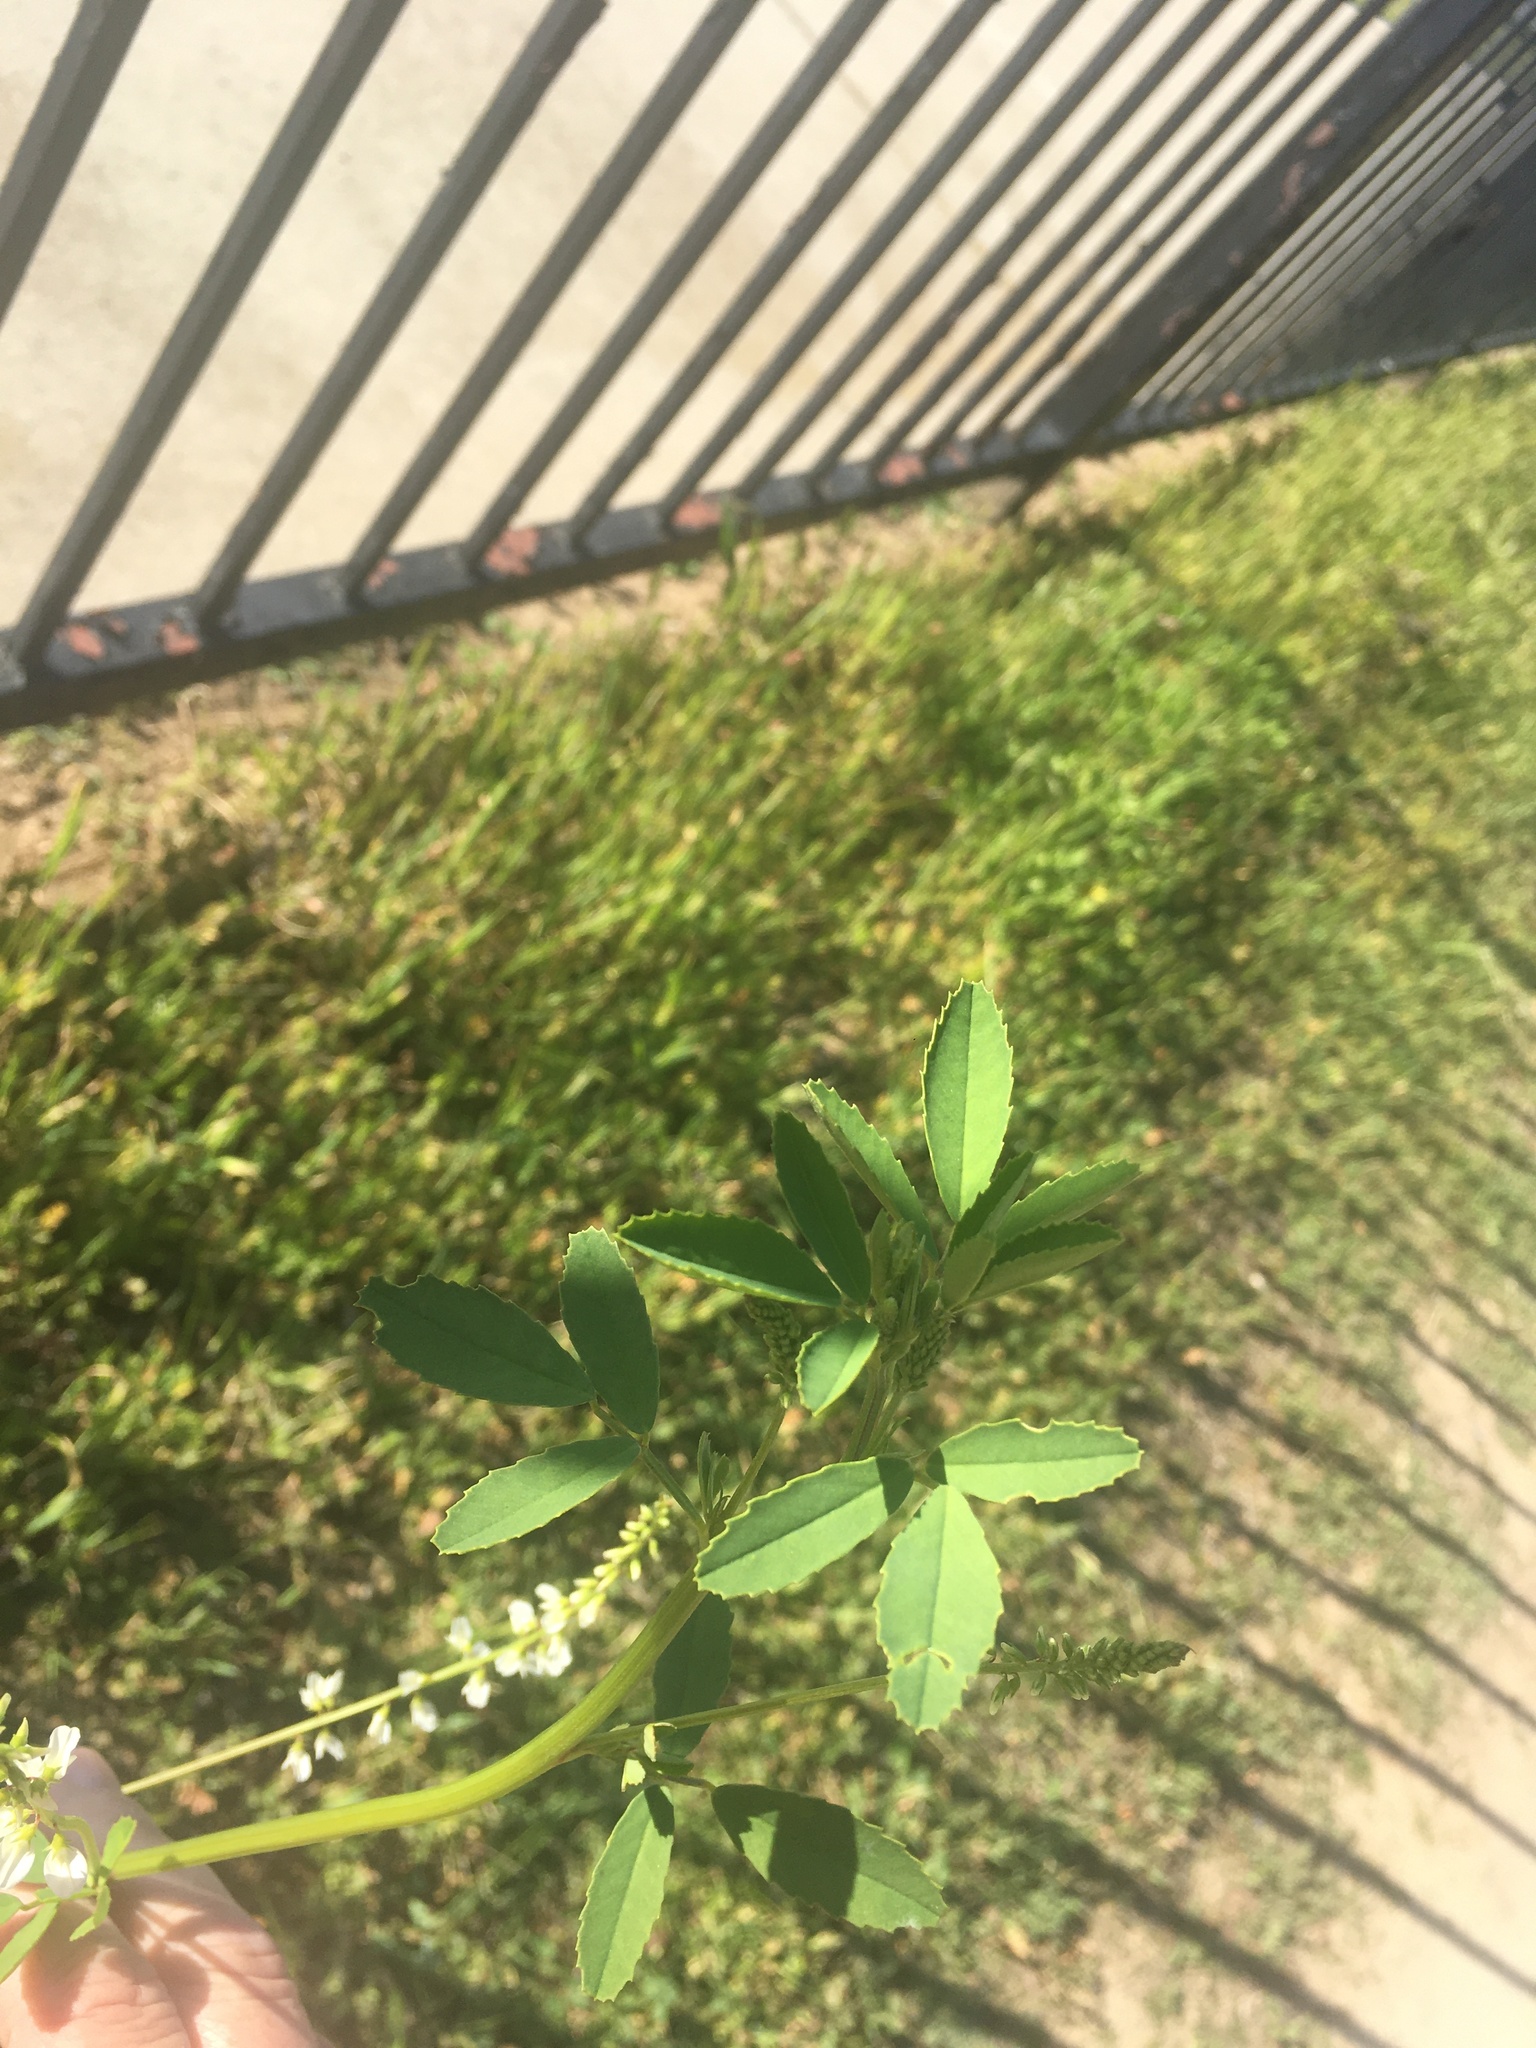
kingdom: Plantae
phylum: Tracheophyta
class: Magnoliopsida
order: Fabales
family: Fabaceae
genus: Melilotus
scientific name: Melilotus albus
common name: White melilot
